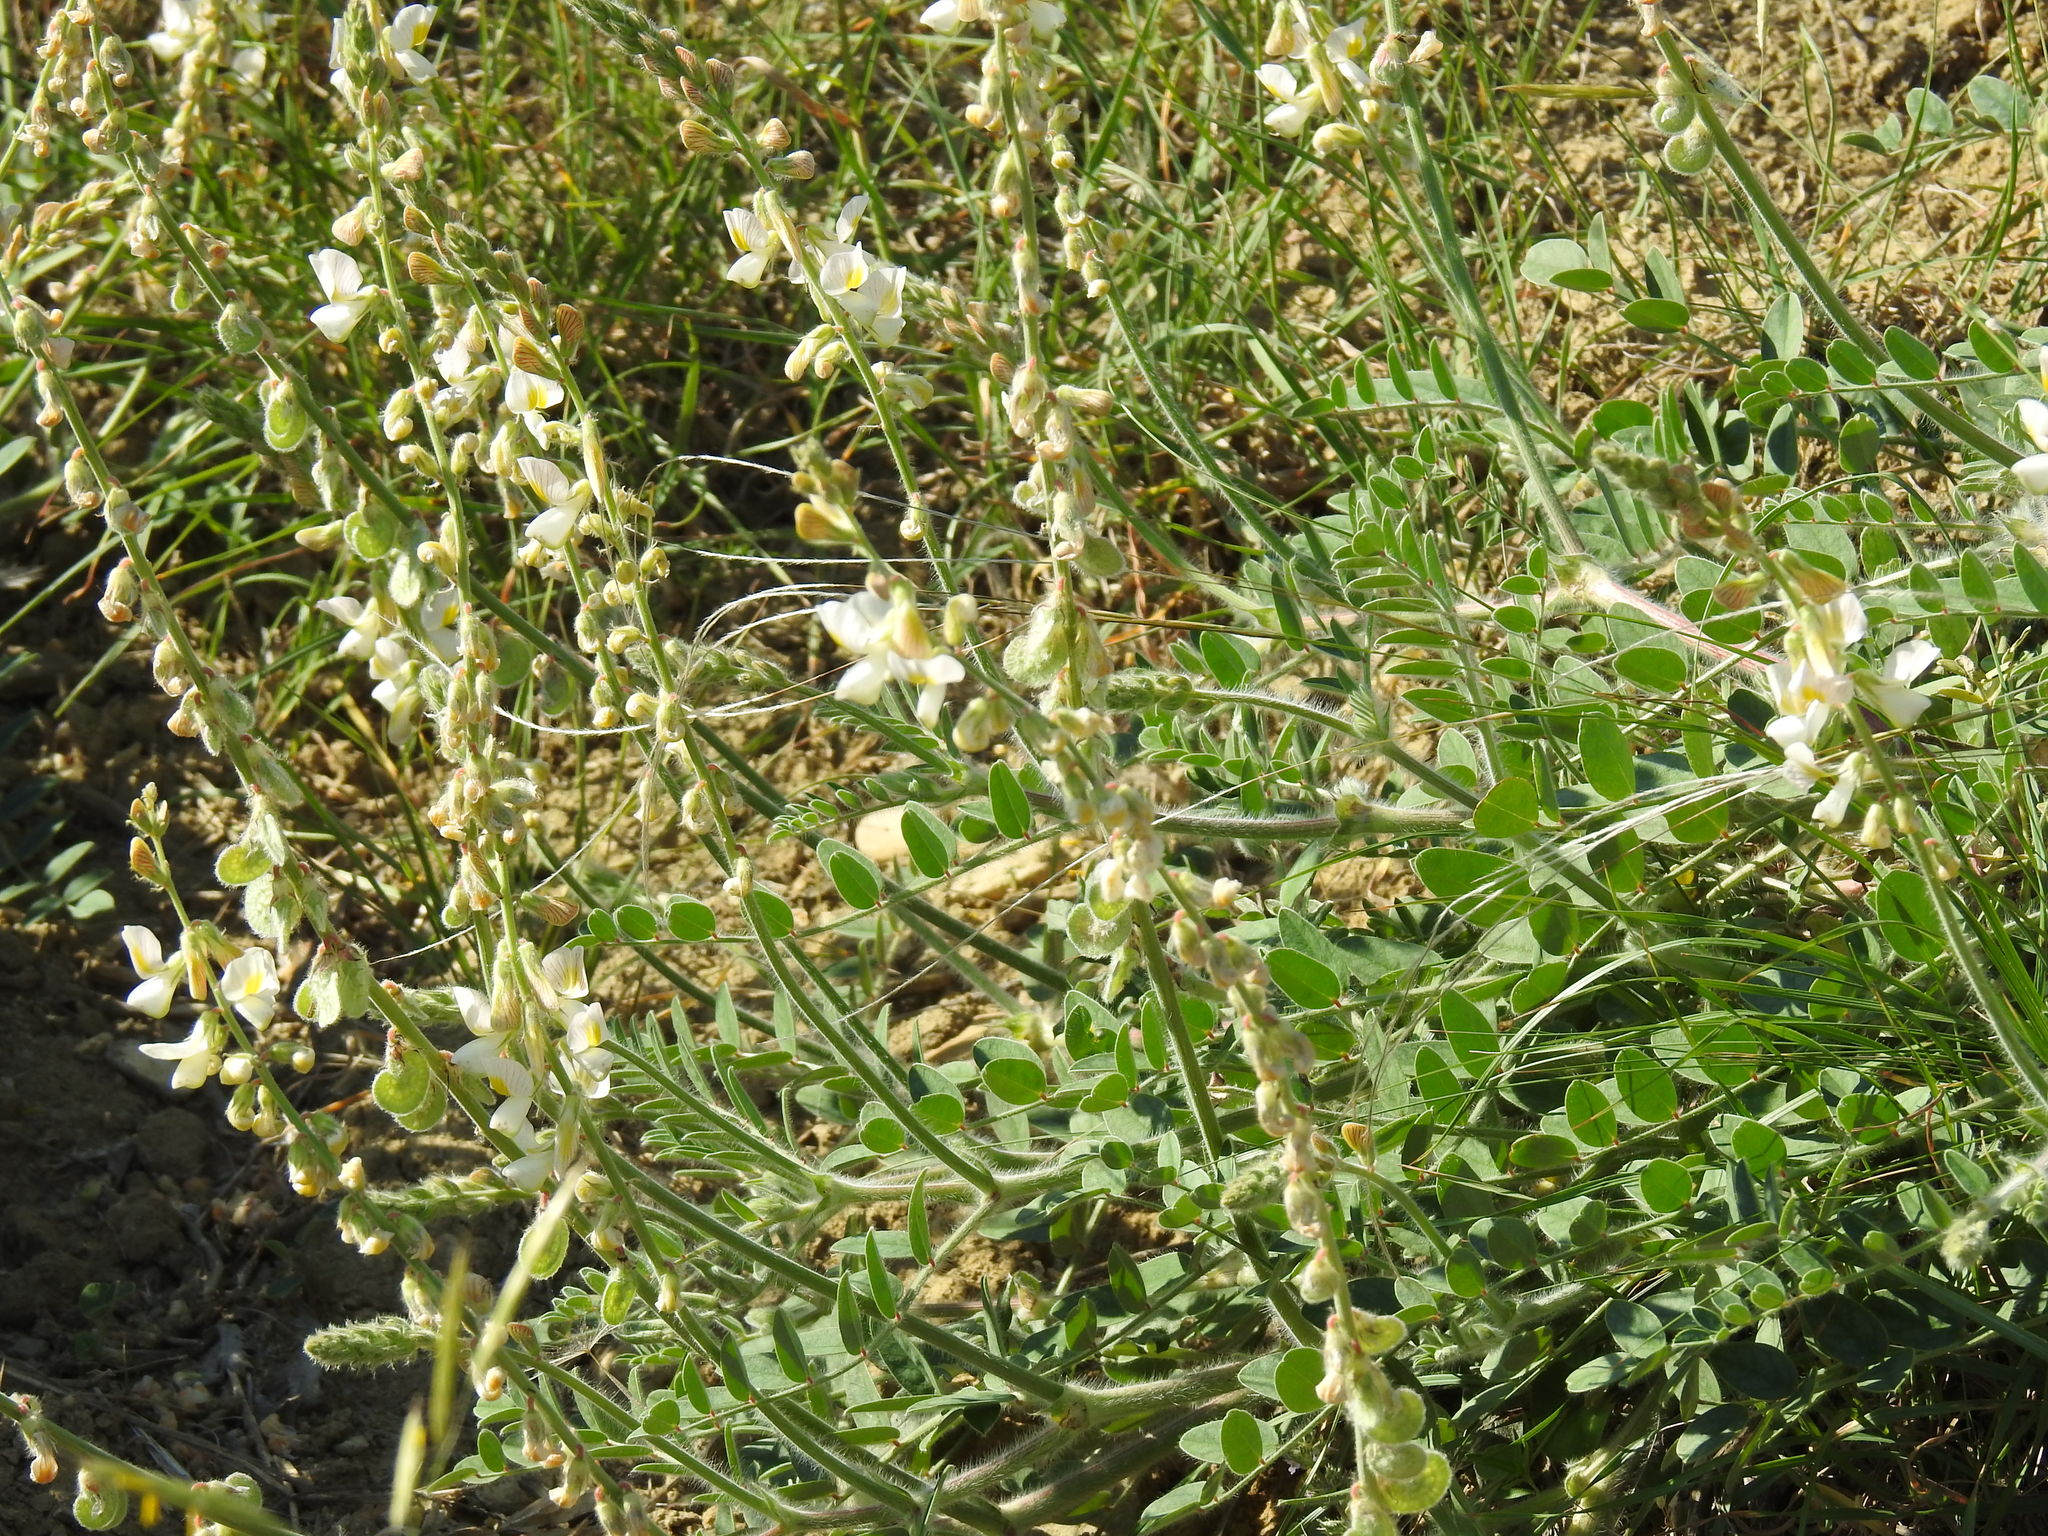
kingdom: Plantae
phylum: Tracheophyta
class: Magnoliopsida
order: Fabales
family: Fabaceae
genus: Onobrychis
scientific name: Onobrychis majorovii
